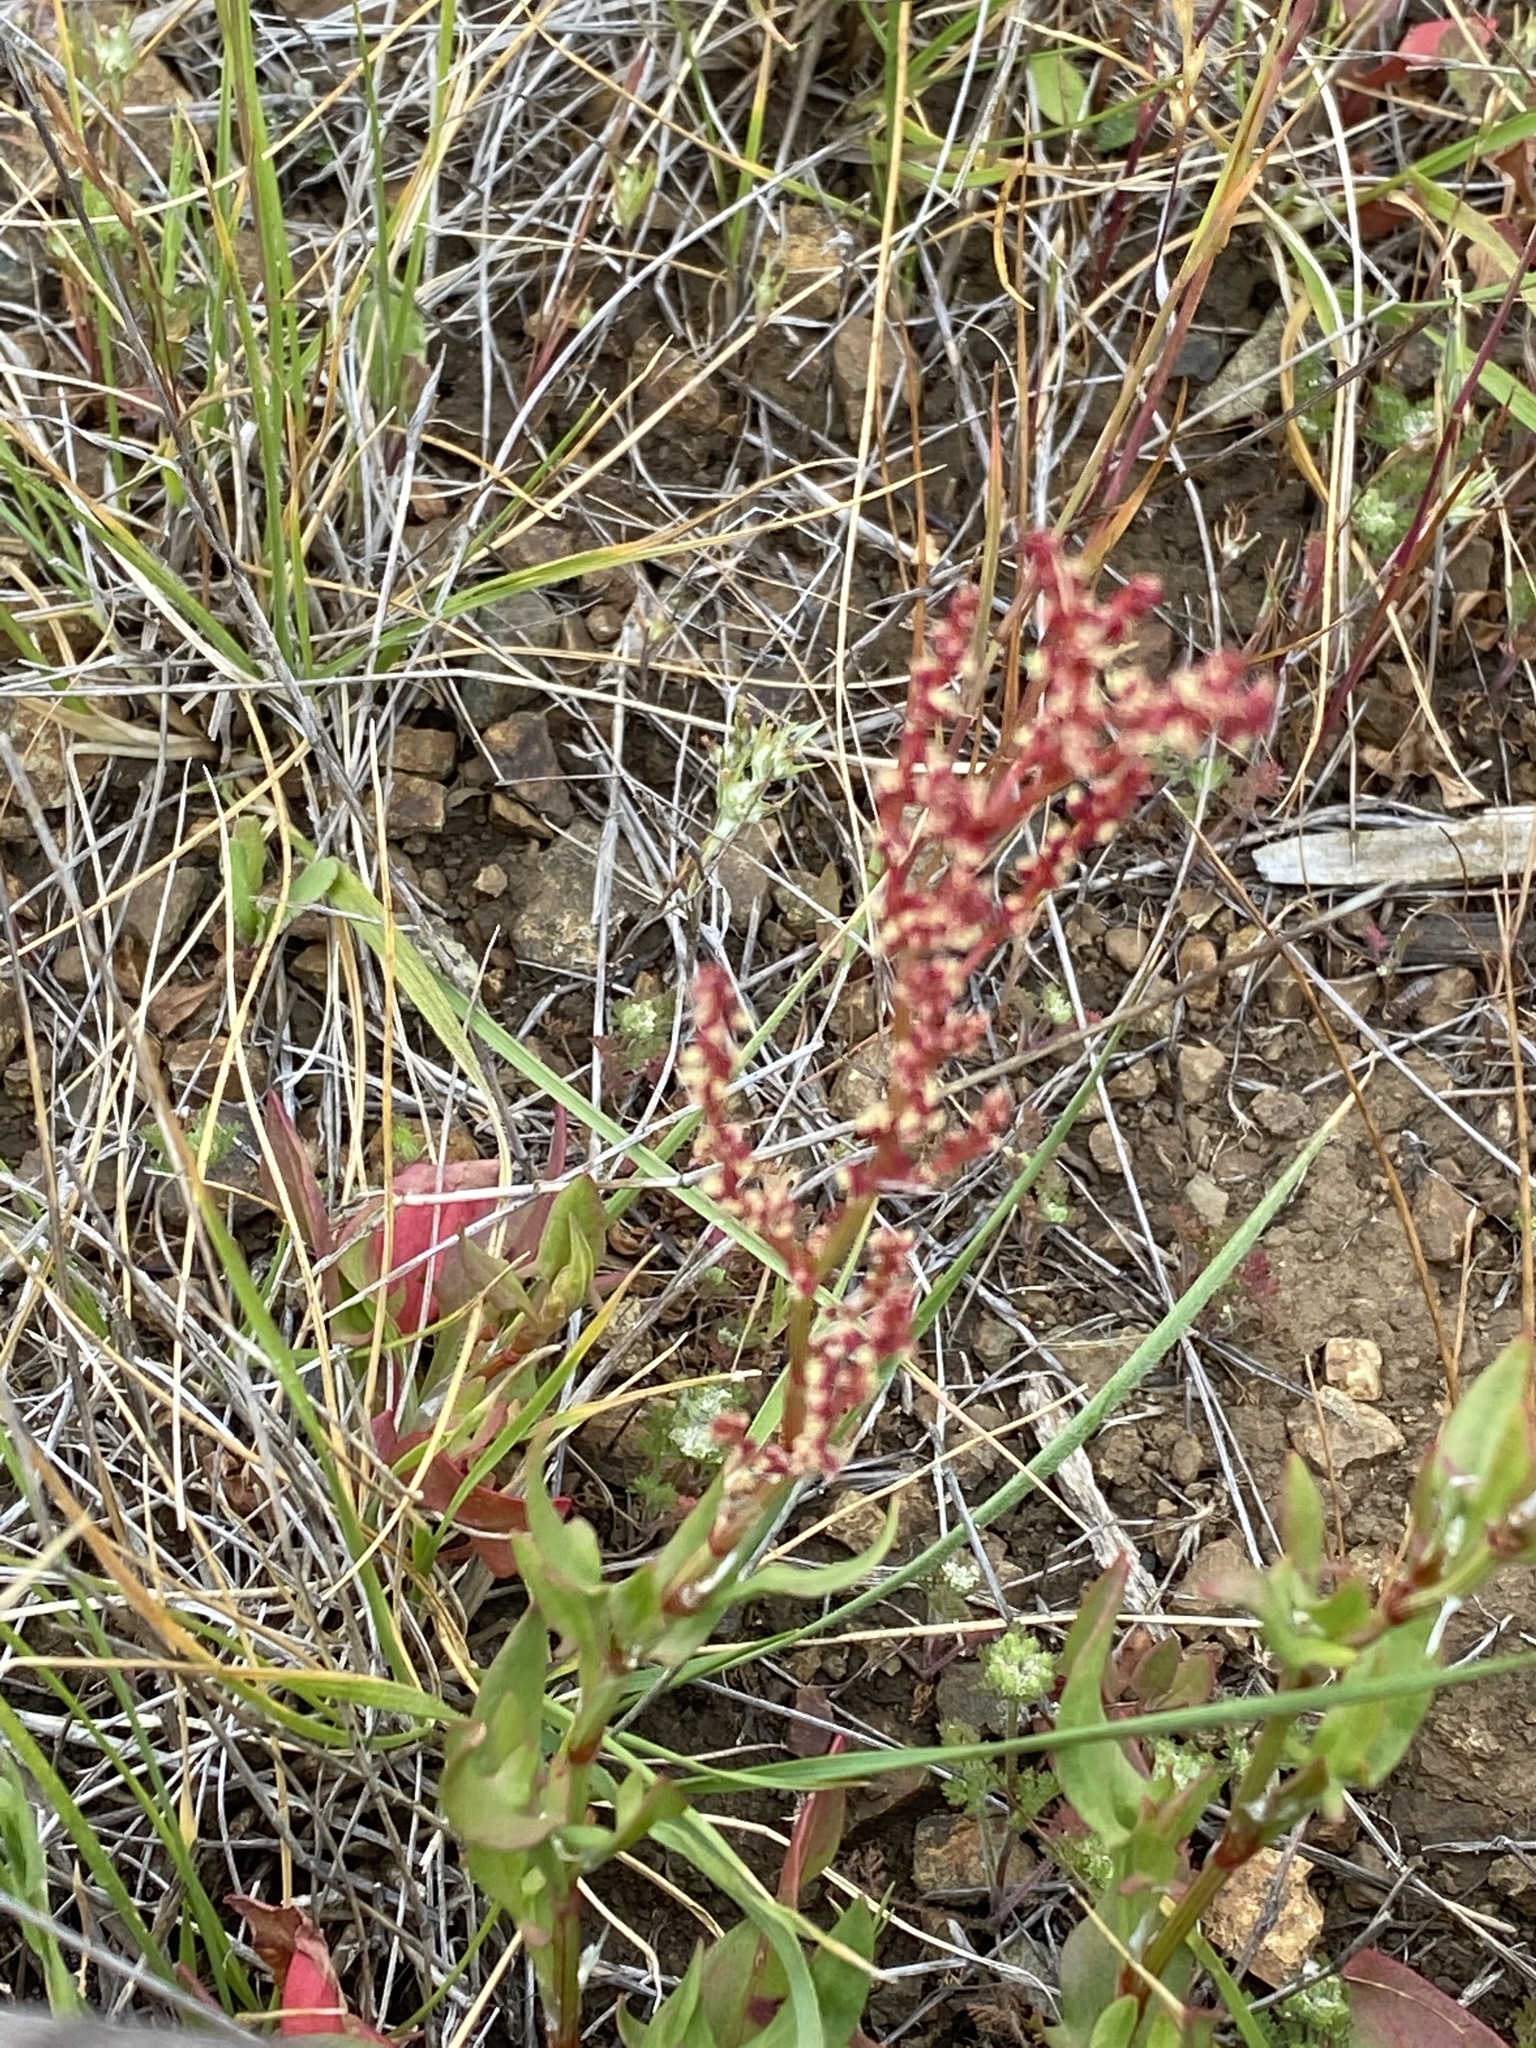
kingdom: Plantae
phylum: Tracheophyta
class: Magnoliopsida
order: Caryophyllales
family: Polygonaceae
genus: Rumex
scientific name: Rumex acetosella
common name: Common sheep sorrel
